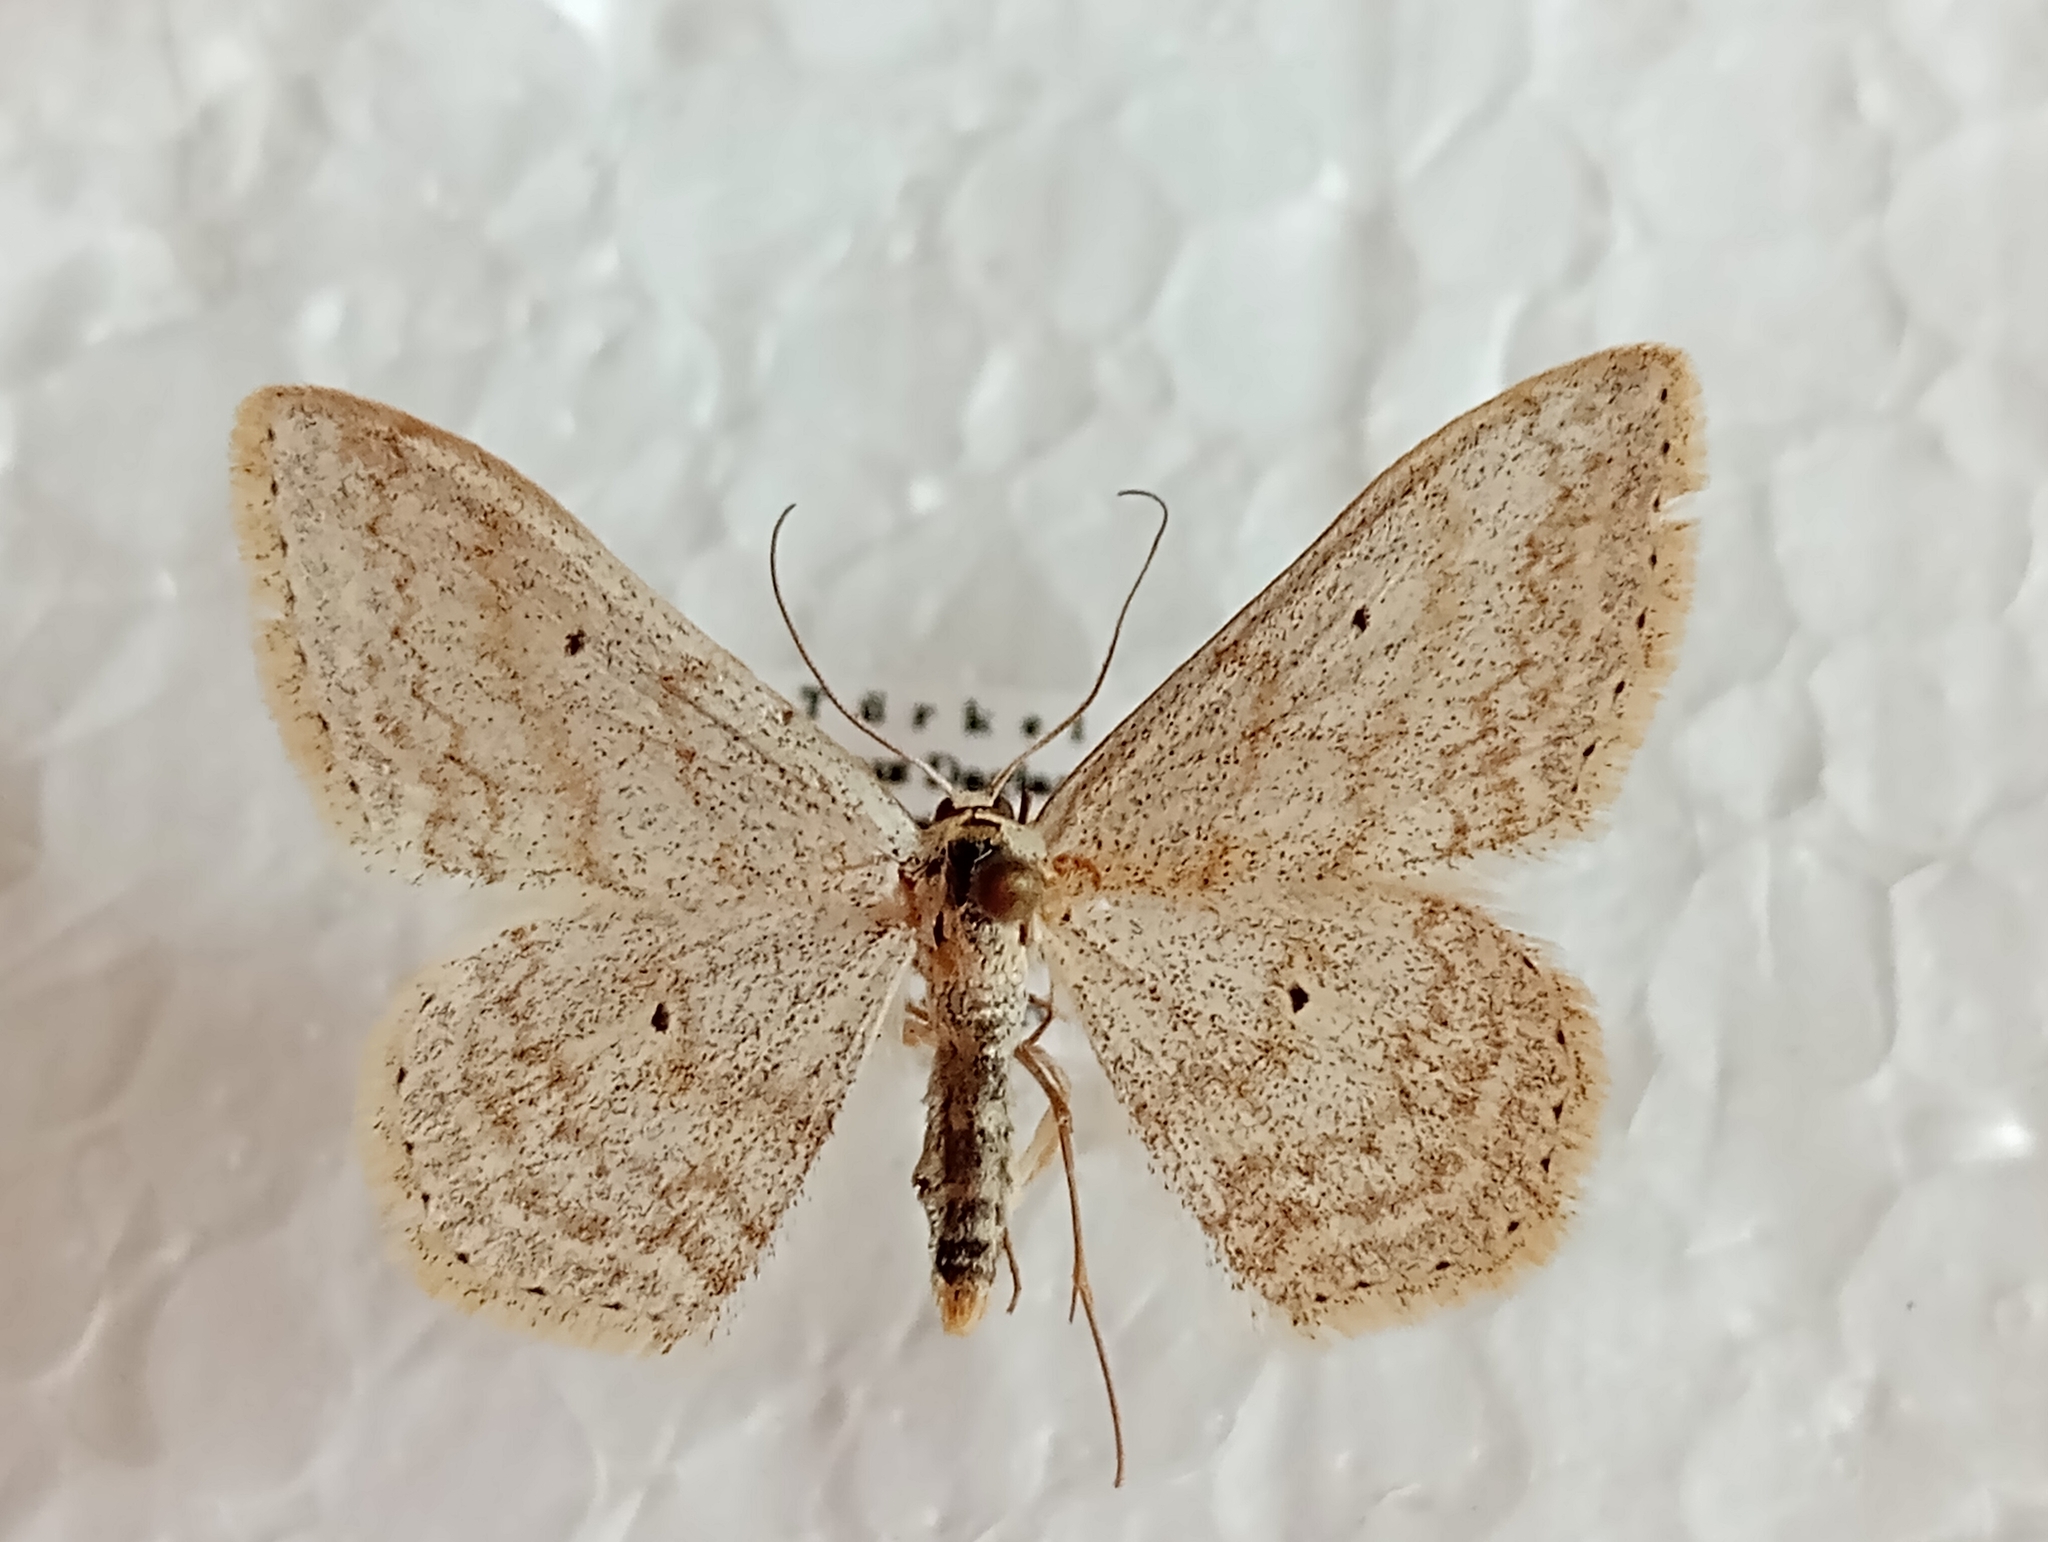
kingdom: Animalia
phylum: Arthropoda
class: Insecta
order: Lepidoptera
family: Geometridae
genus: Scopula
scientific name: Scopula incanata
